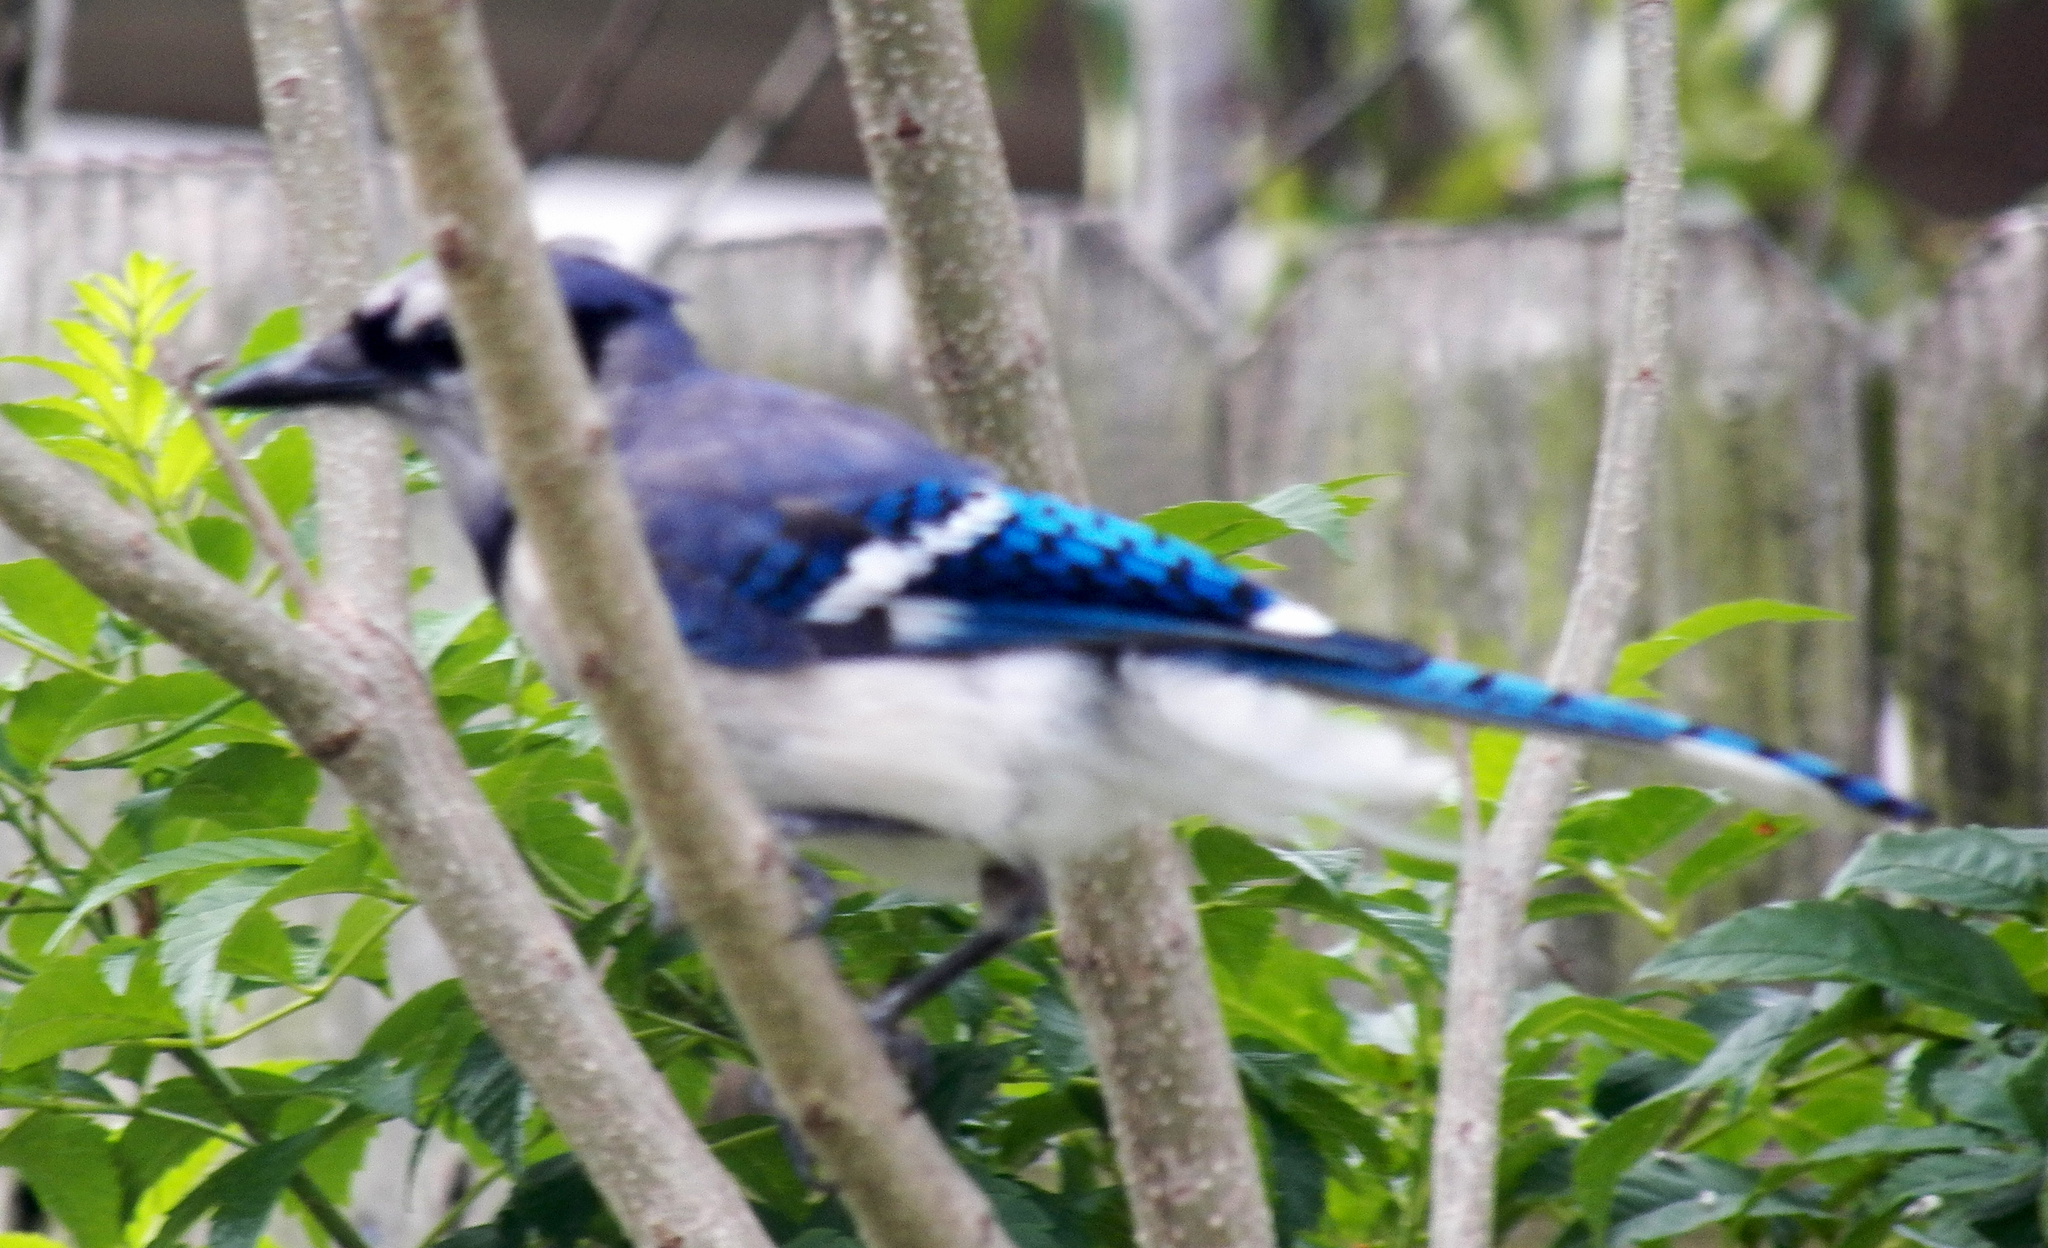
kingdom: Animalia
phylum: Chordata
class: Aves
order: Passeriformes
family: Corvidae
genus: Cyanocitta
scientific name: Cyanocitta cristata
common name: Blue jay
